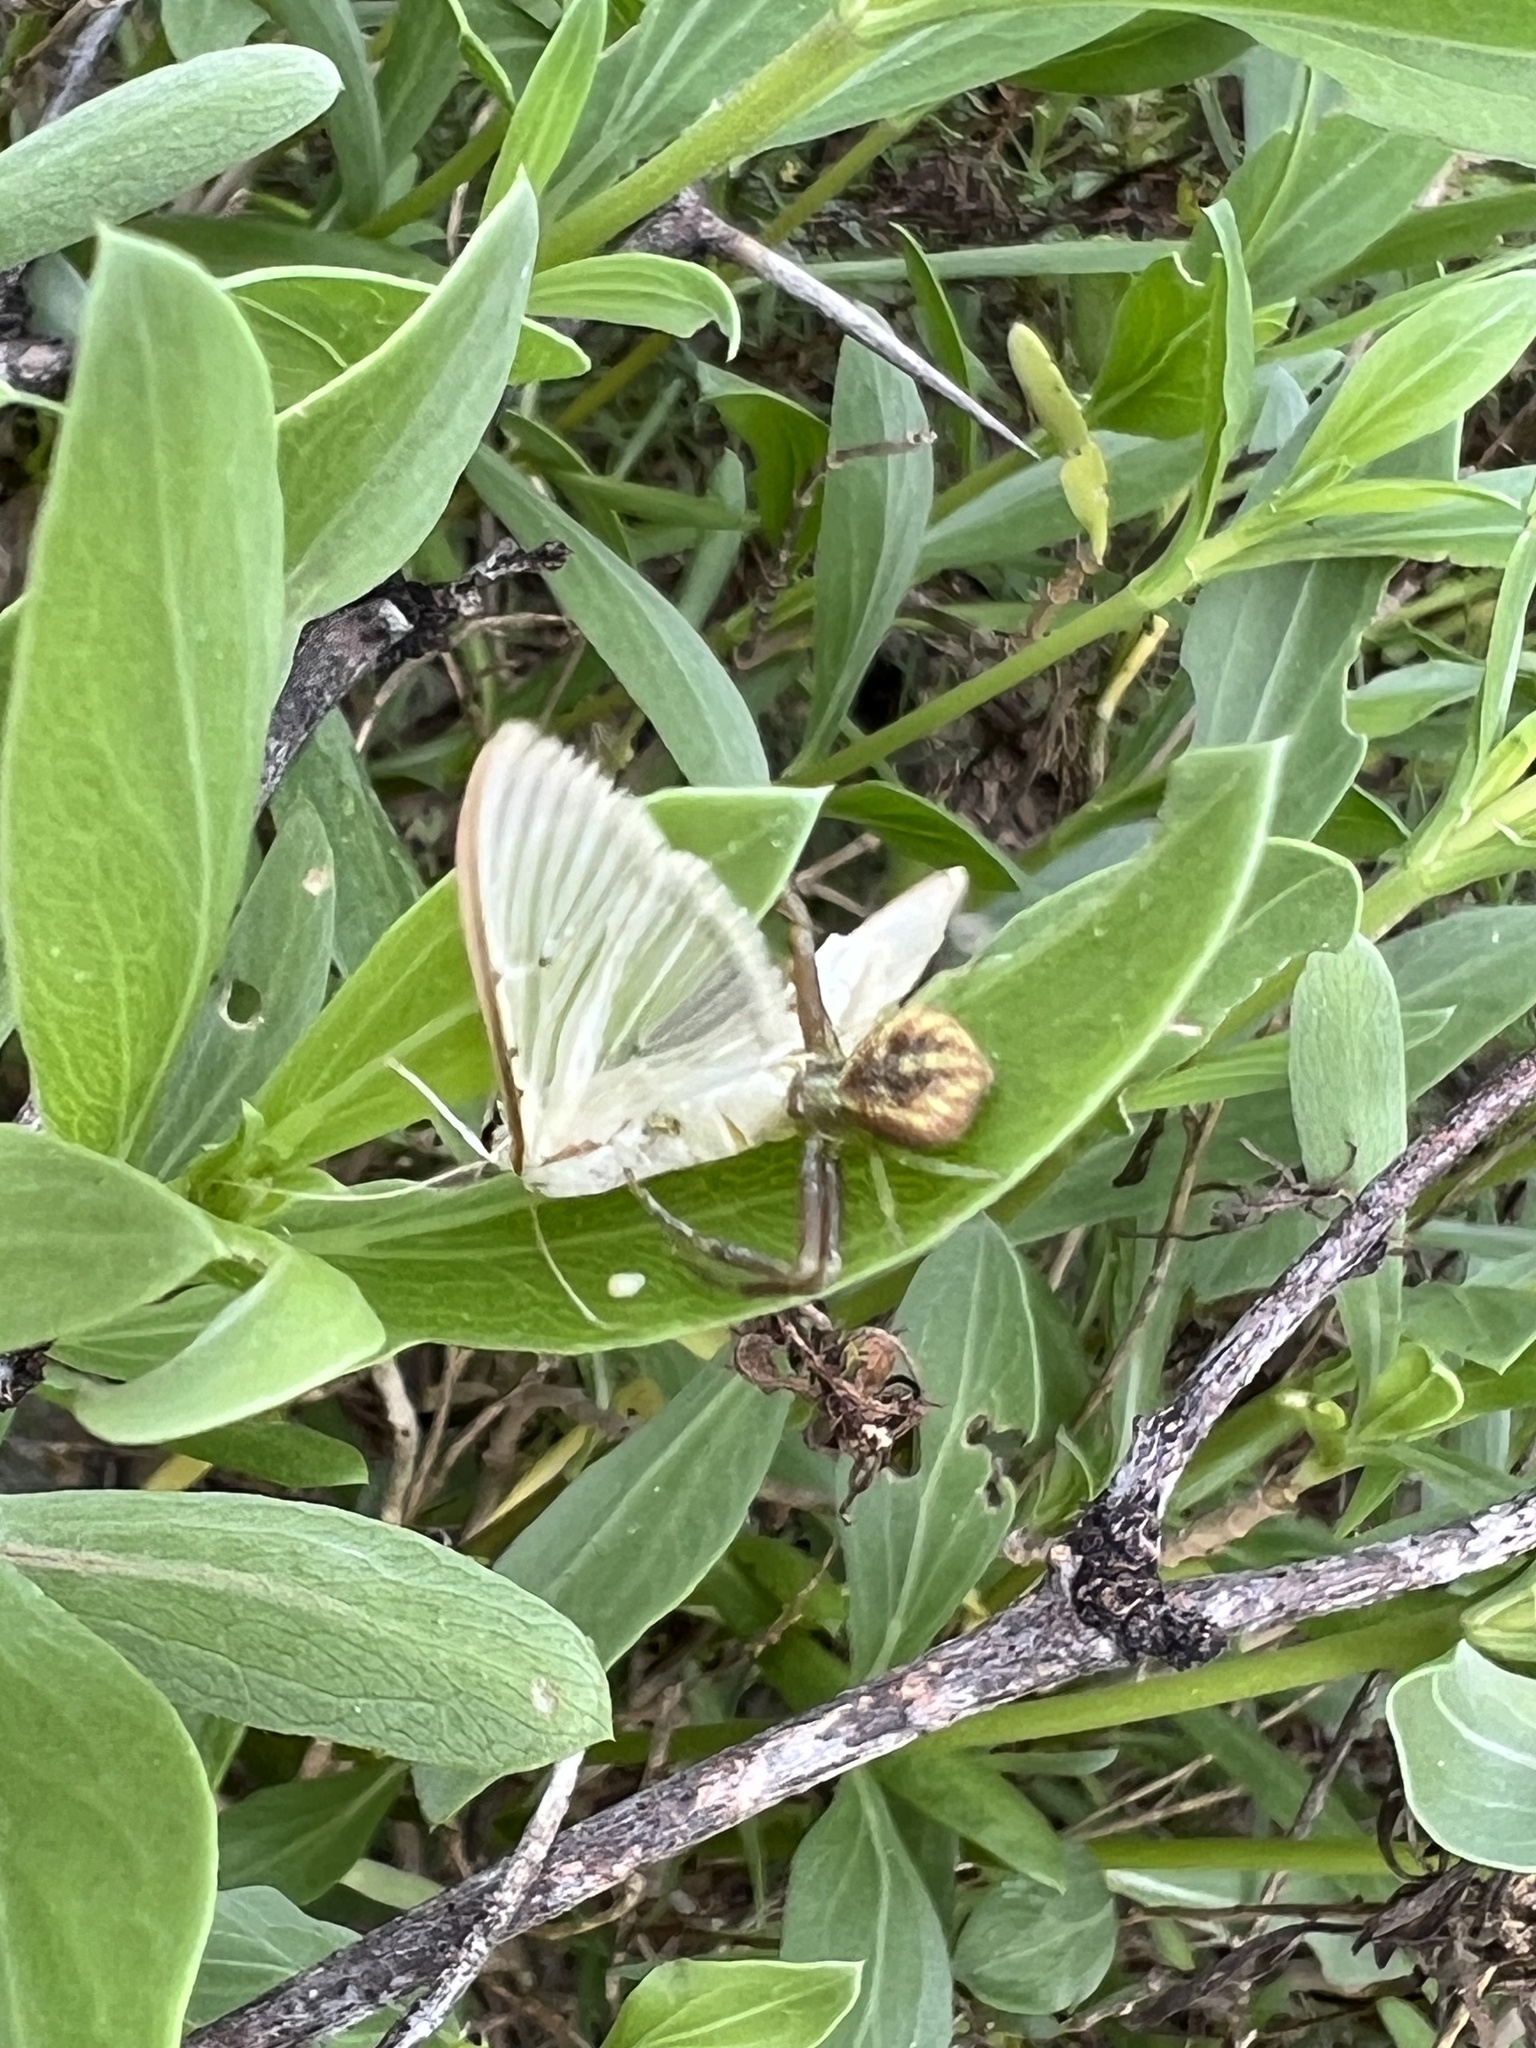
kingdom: Animalia
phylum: Arthropoda
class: Insecta
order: Lepidoptera
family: Crambidae
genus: Palpita
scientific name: Palpita quadristigmalis
